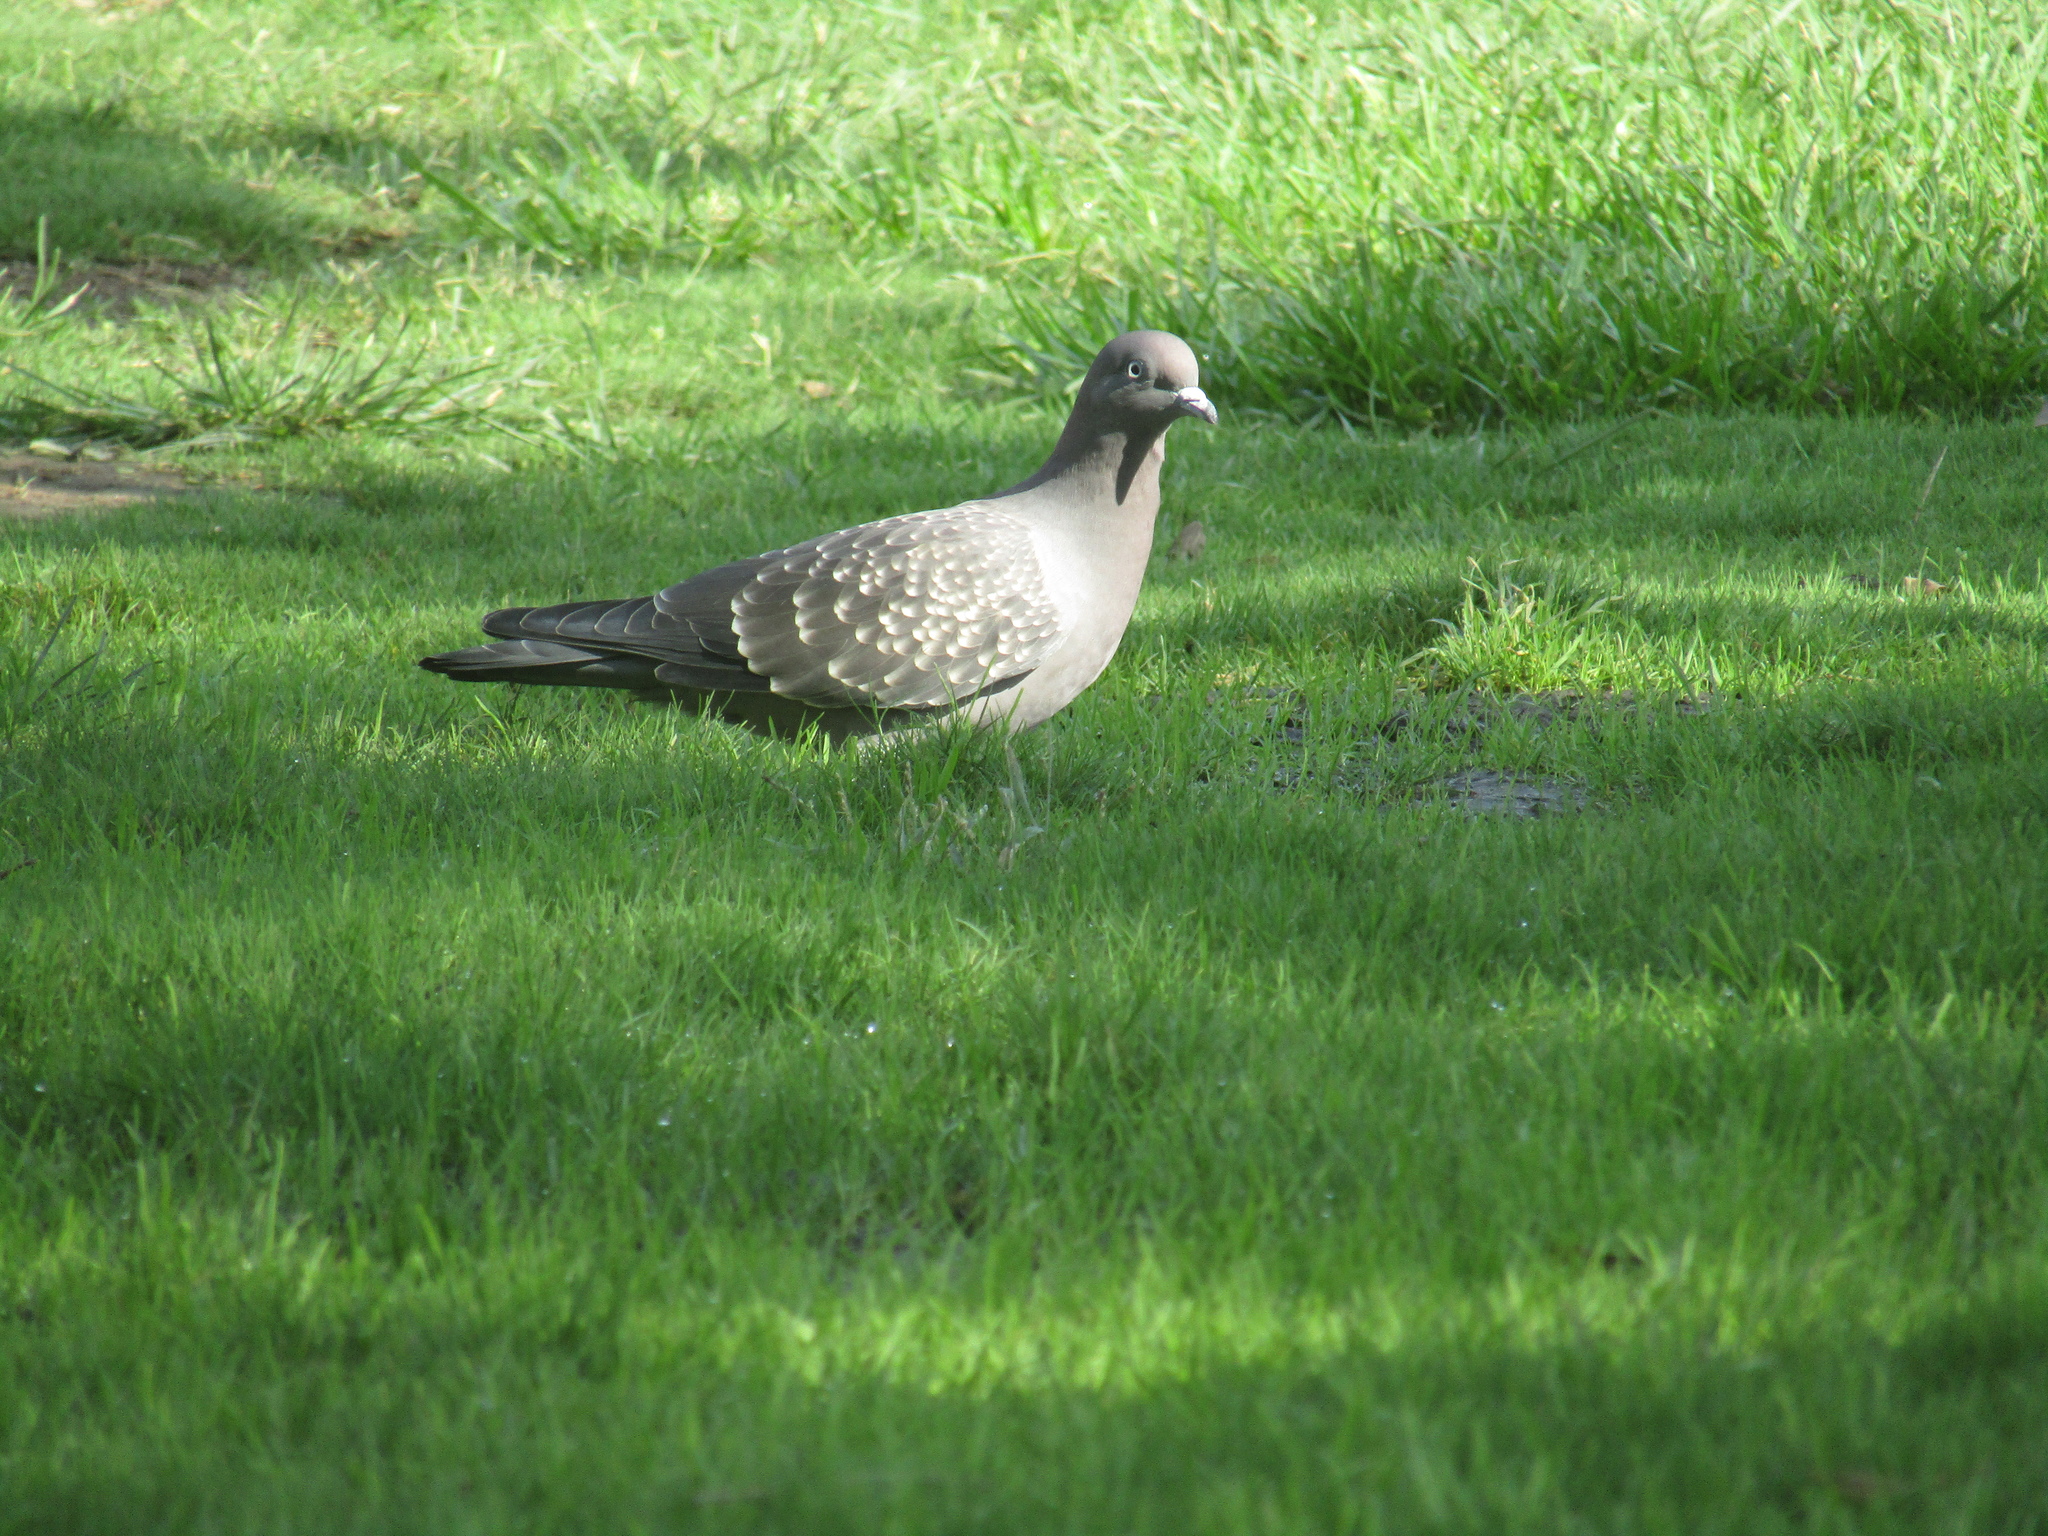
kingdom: Animalia
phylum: Chordata
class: Aves
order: Columbiformes
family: Columbidae
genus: Patagioenas
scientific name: Patagioenas maculosa
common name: Spot-winged pigeon
